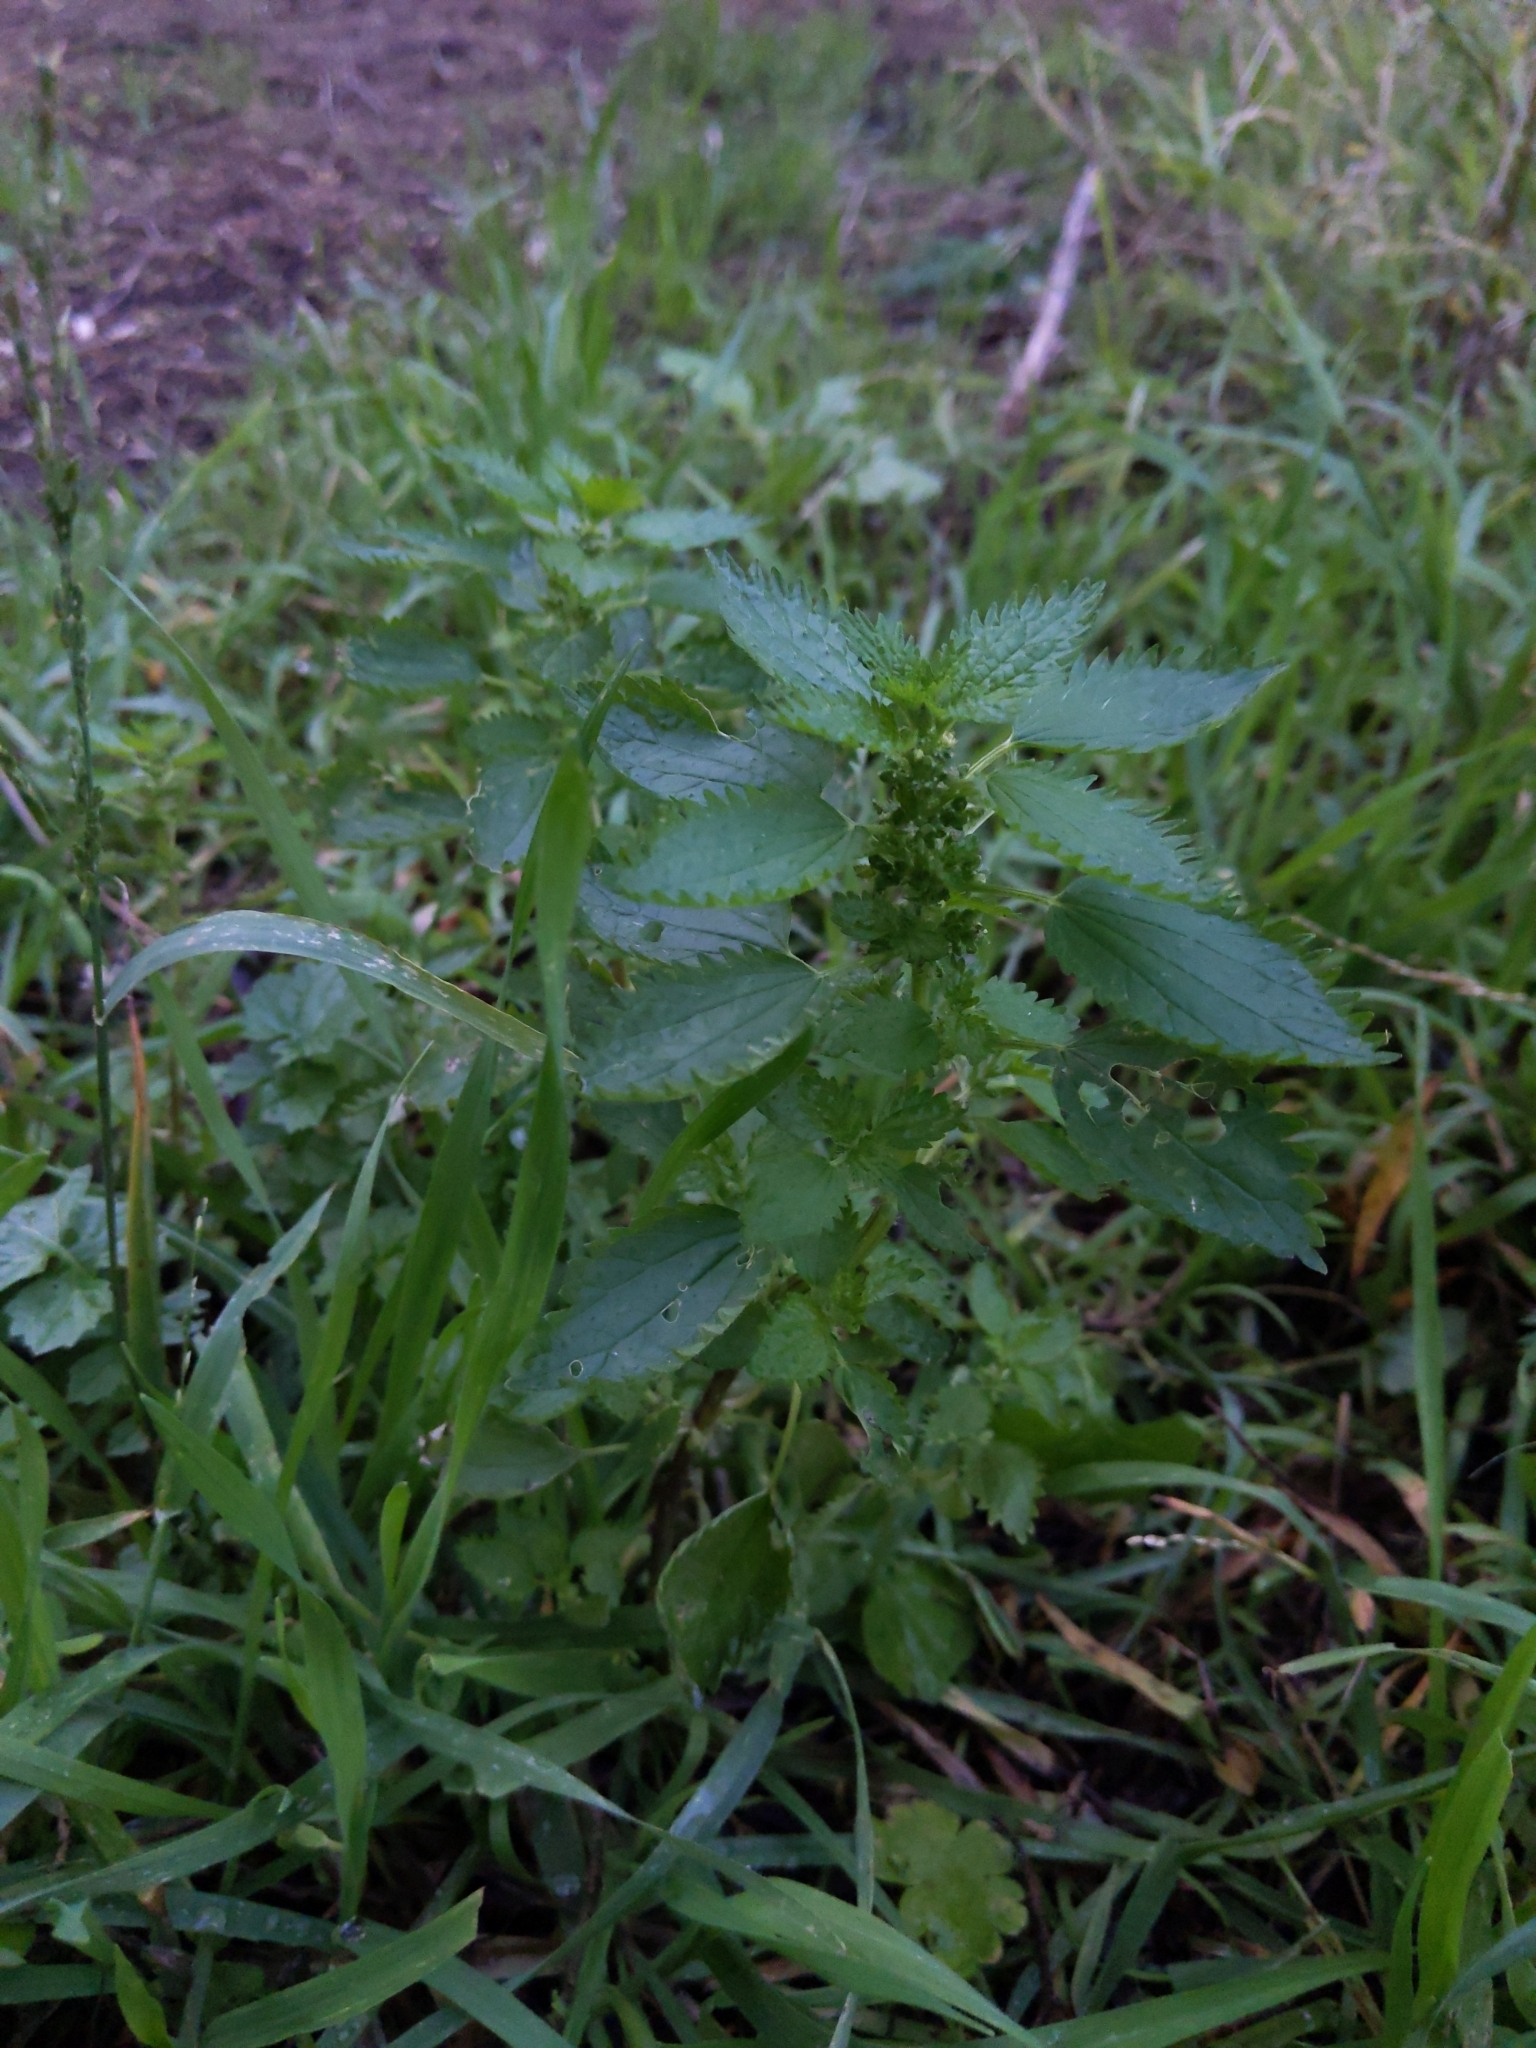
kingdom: Plantae
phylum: Tracheophyta
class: Magnoliopsida
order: Rosales
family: Urticaceae
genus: Urtica
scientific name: Urtica urens
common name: Dwarf nettle
